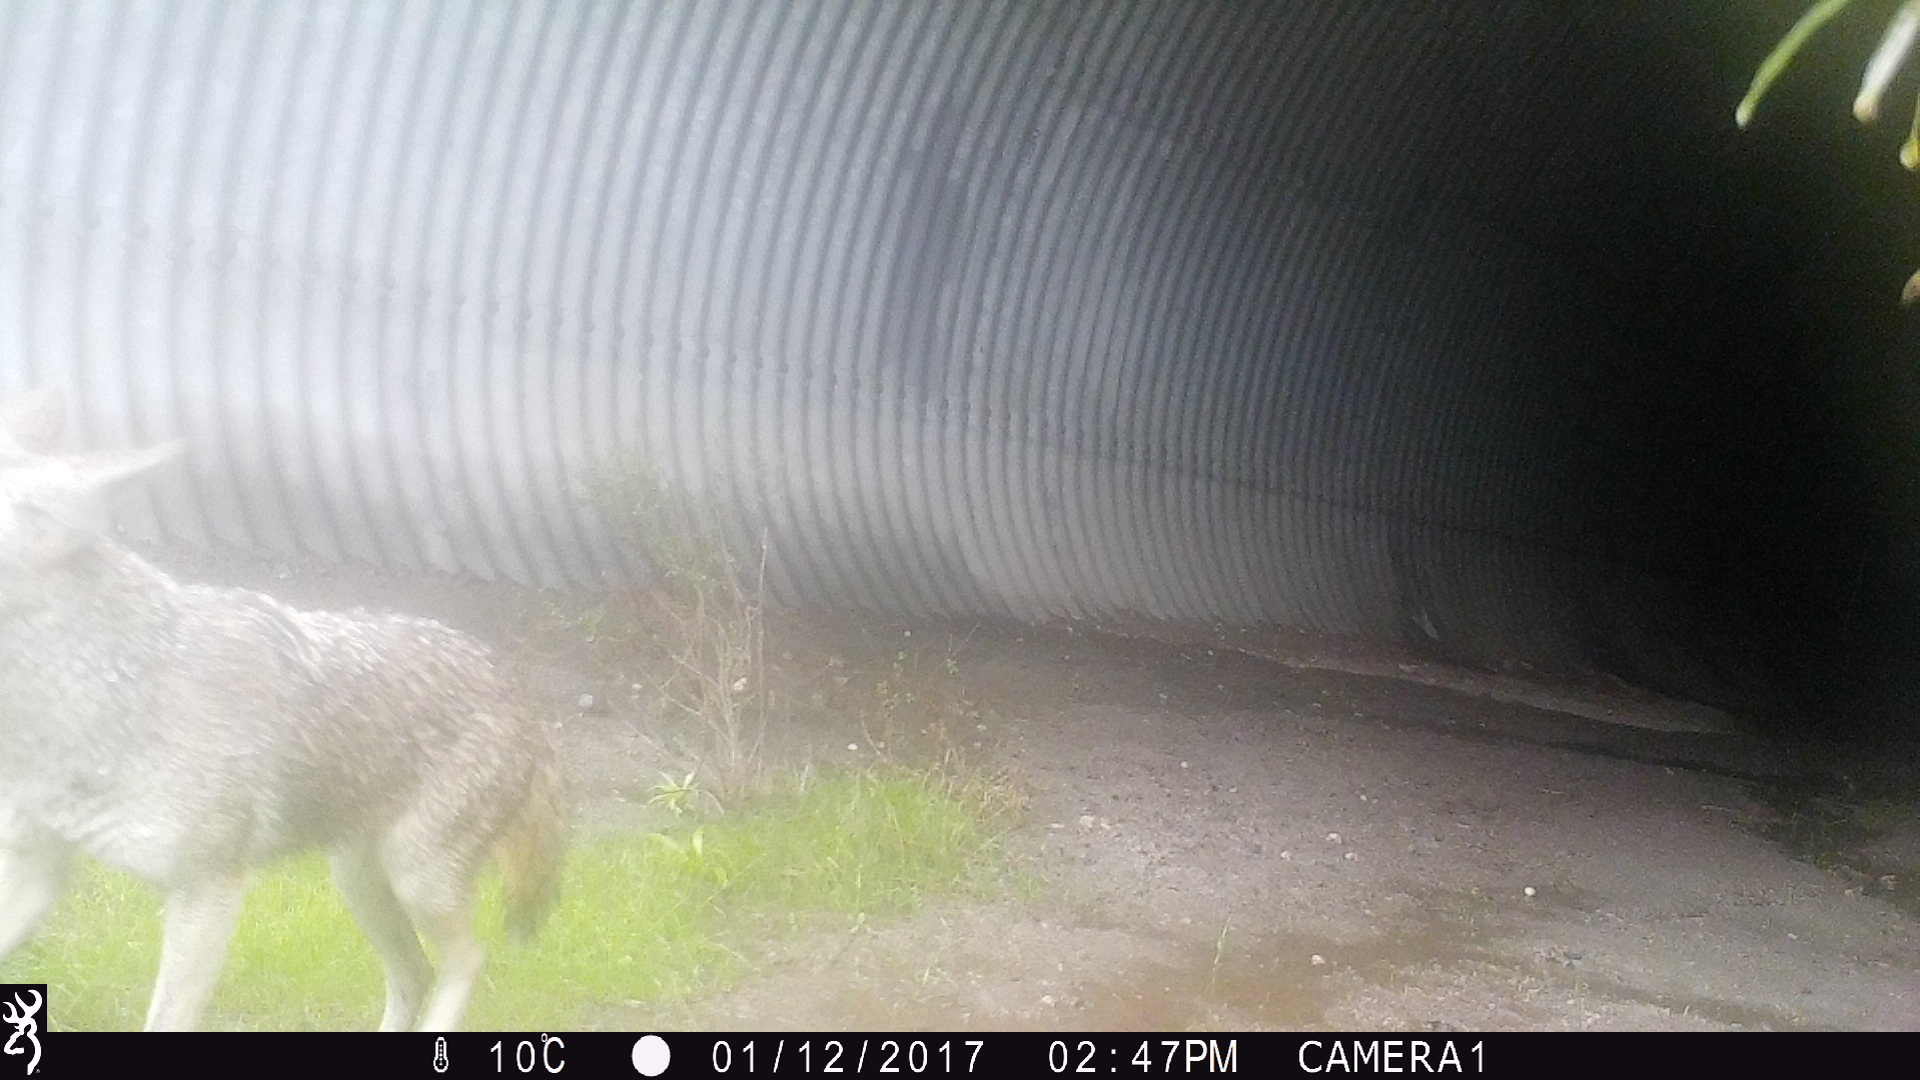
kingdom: Animalia
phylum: Chordata
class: Mammalia
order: Carnivora
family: Canidae
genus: Canis
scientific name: Canis latrans
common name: Coyote
